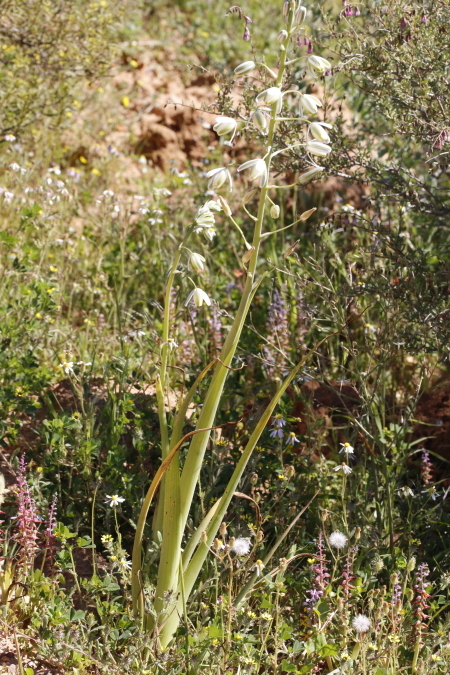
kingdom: Plantae
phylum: Tracheophyta
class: Liliopsida
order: Asparagales
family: Asparagaceae
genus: Albuca
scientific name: Albuca canadensis
